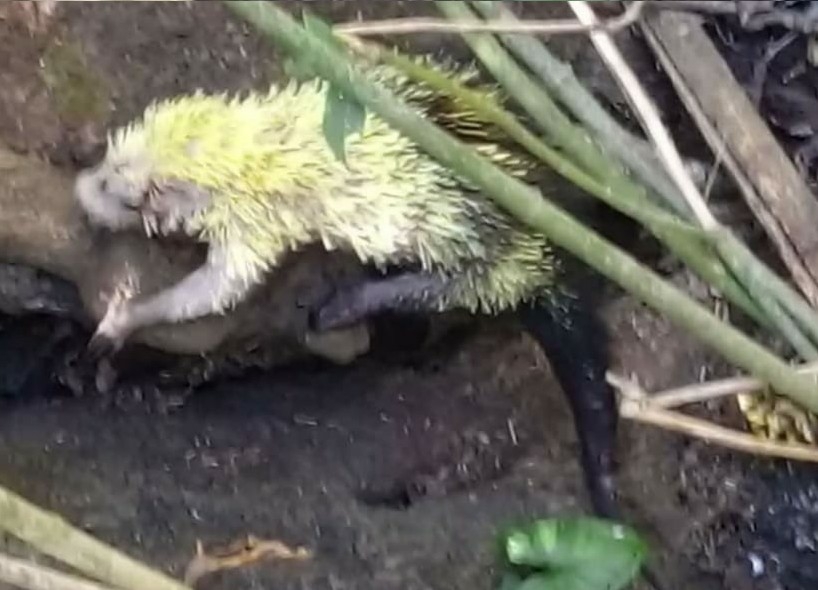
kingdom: Animalia
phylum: Chordata
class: Mammalia
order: Rodentia
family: Erethizontidae
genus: Sphiggurus
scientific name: Sphiggurus mexicanus
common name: Mexican hairy dwarf porcupine
